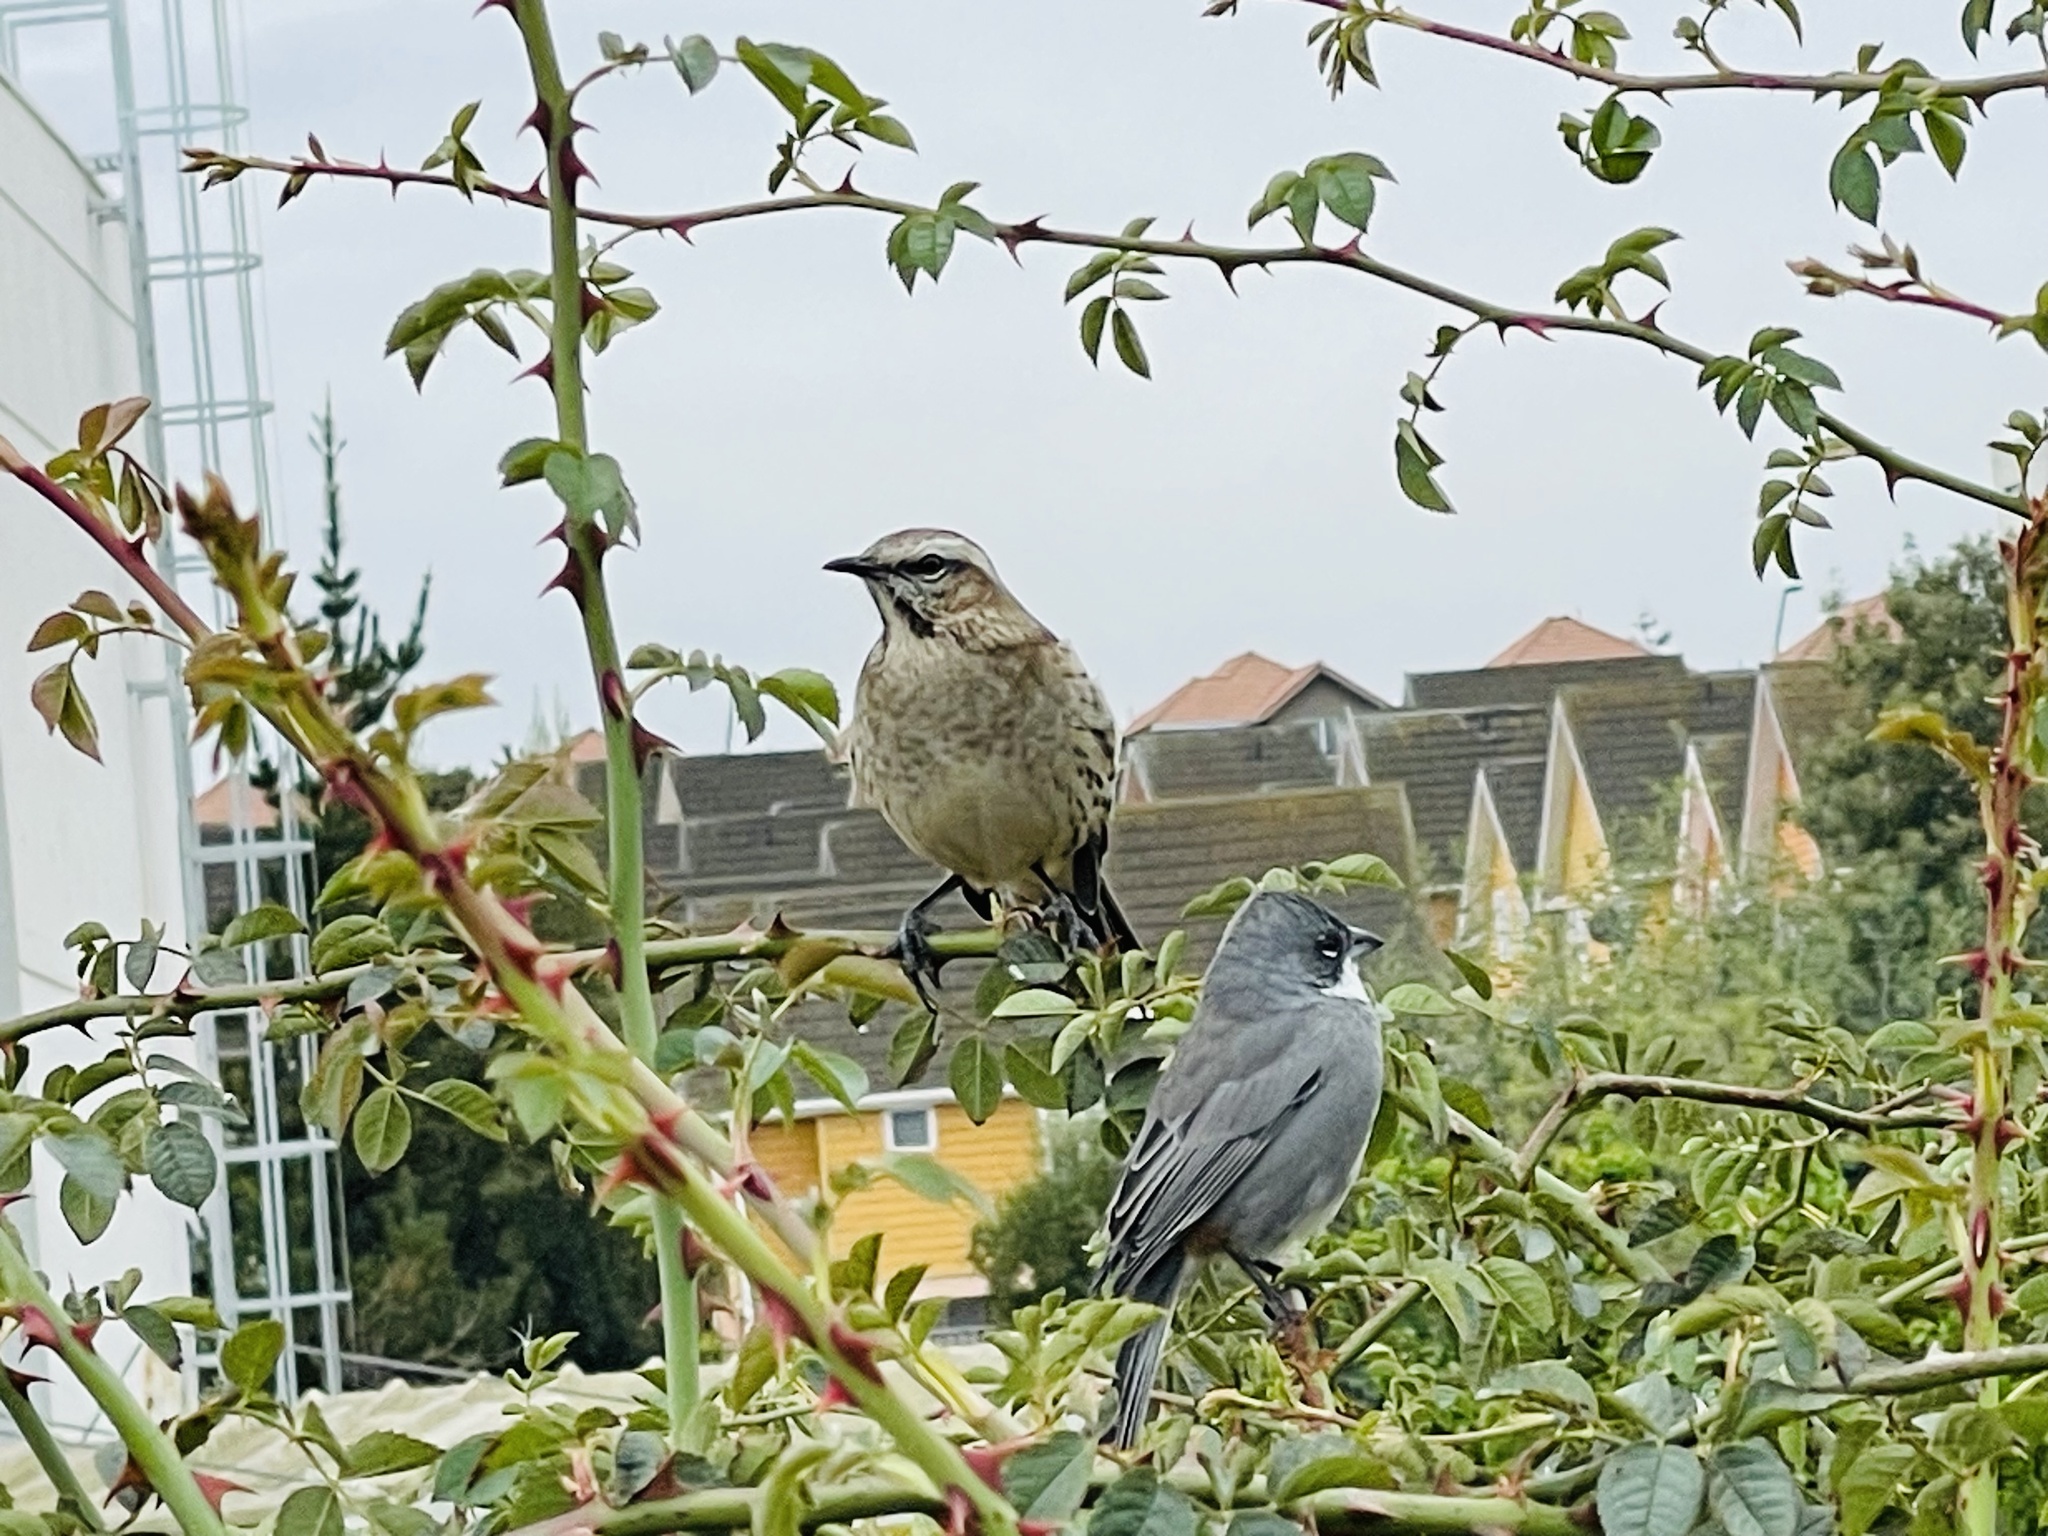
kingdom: Animalia
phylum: Chordata
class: Aves
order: Passeriformes
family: Mimidae
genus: Mimus
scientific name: Mimus thenca
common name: Chilean mockingbird
